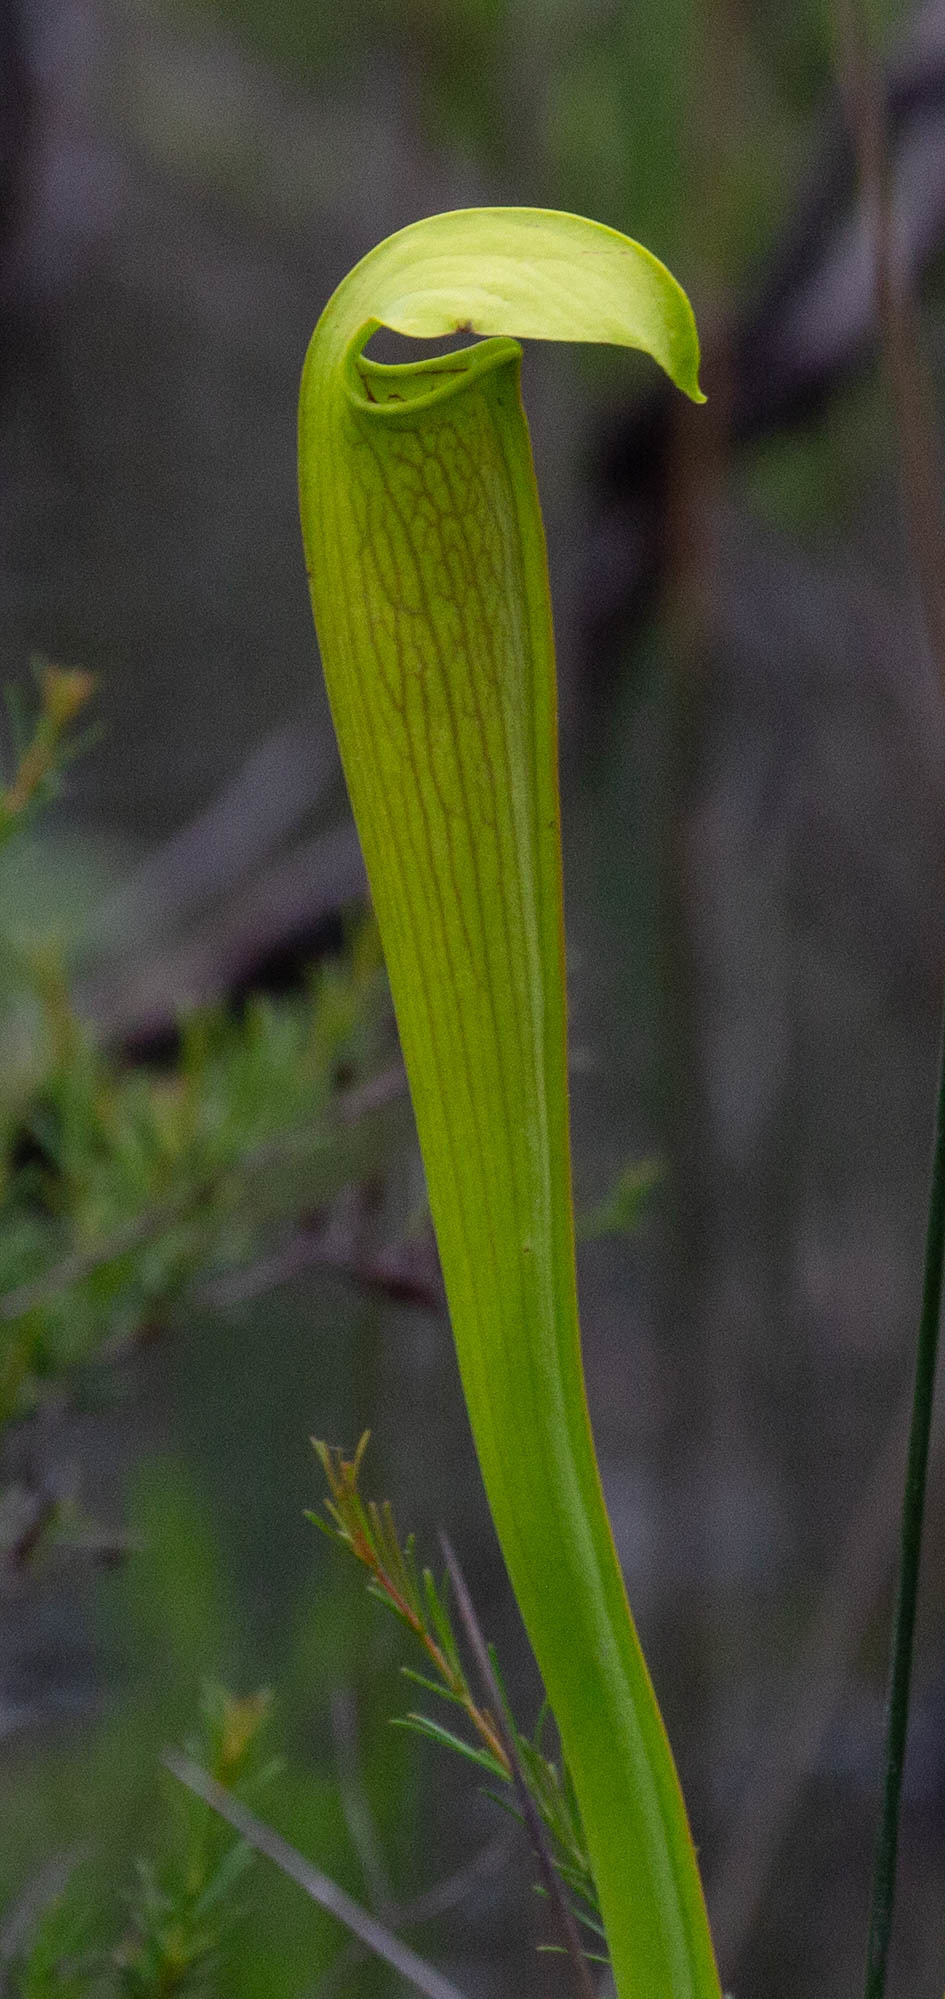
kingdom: Plantae
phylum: Tracheophyta
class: Magnoliopsida
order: Ericales
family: Sarraceniaceae
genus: Sarracenia
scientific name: Sarracenia alata
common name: Yellow trumpets
